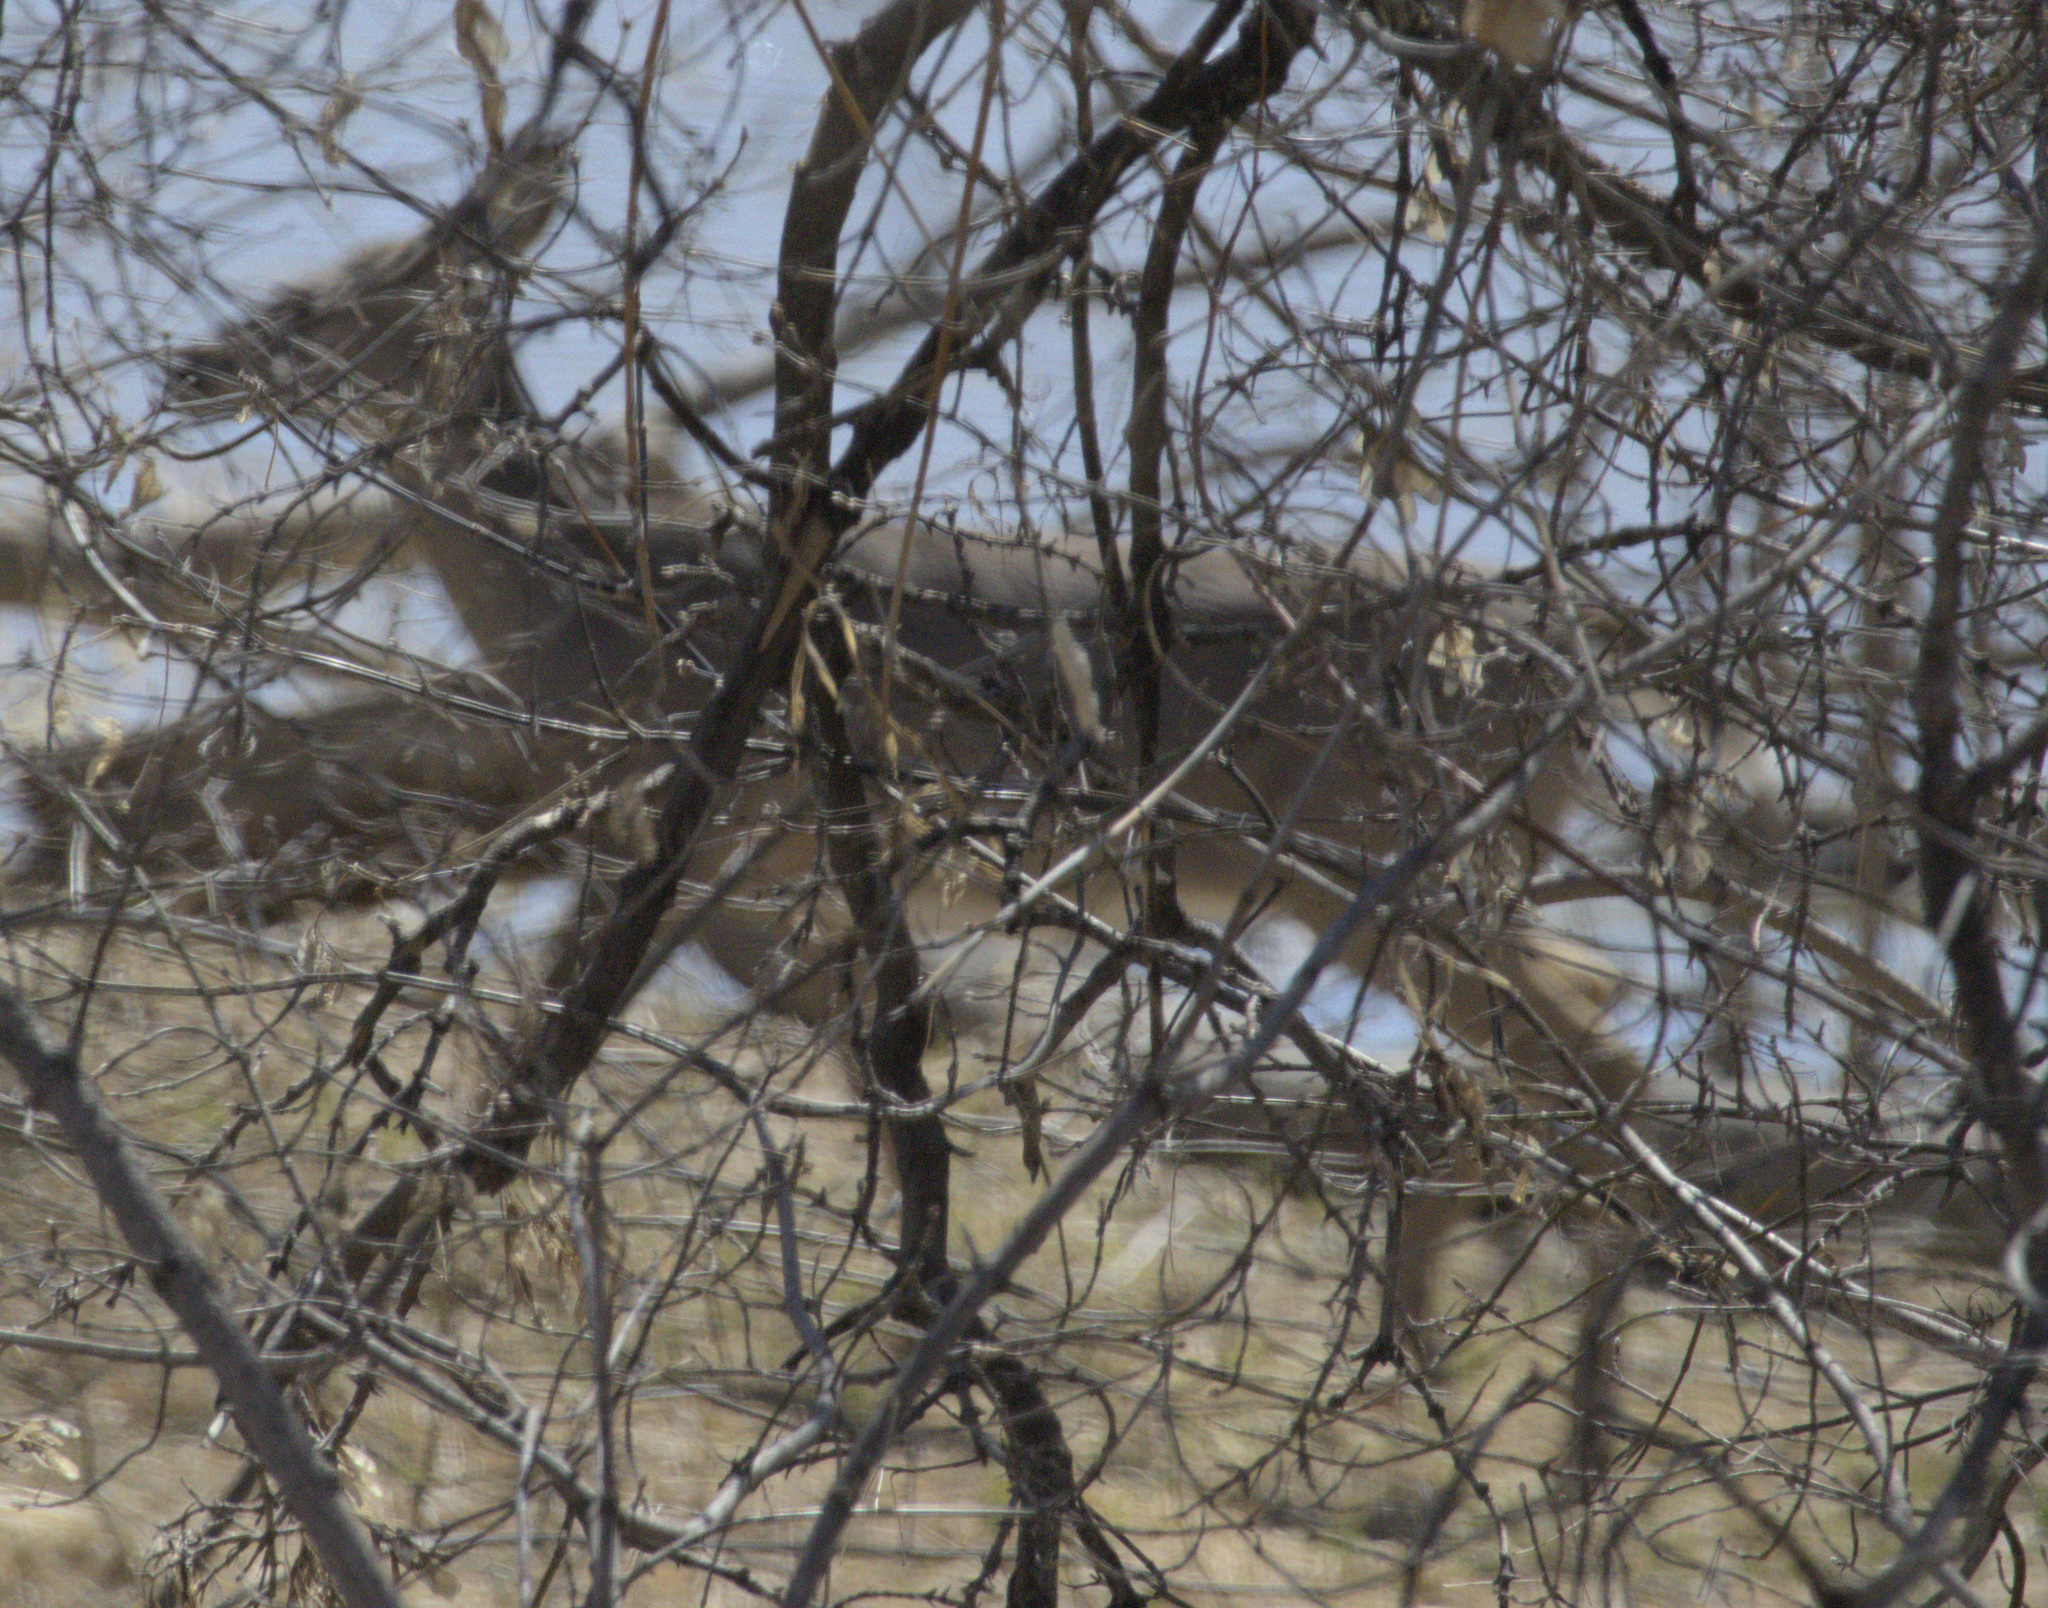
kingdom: Animalia
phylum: Chordata
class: Mammalia
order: Artiodactyla
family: Cervidae
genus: Odocoileus
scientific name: Odocoileus virginianus
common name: White-tailed deer
